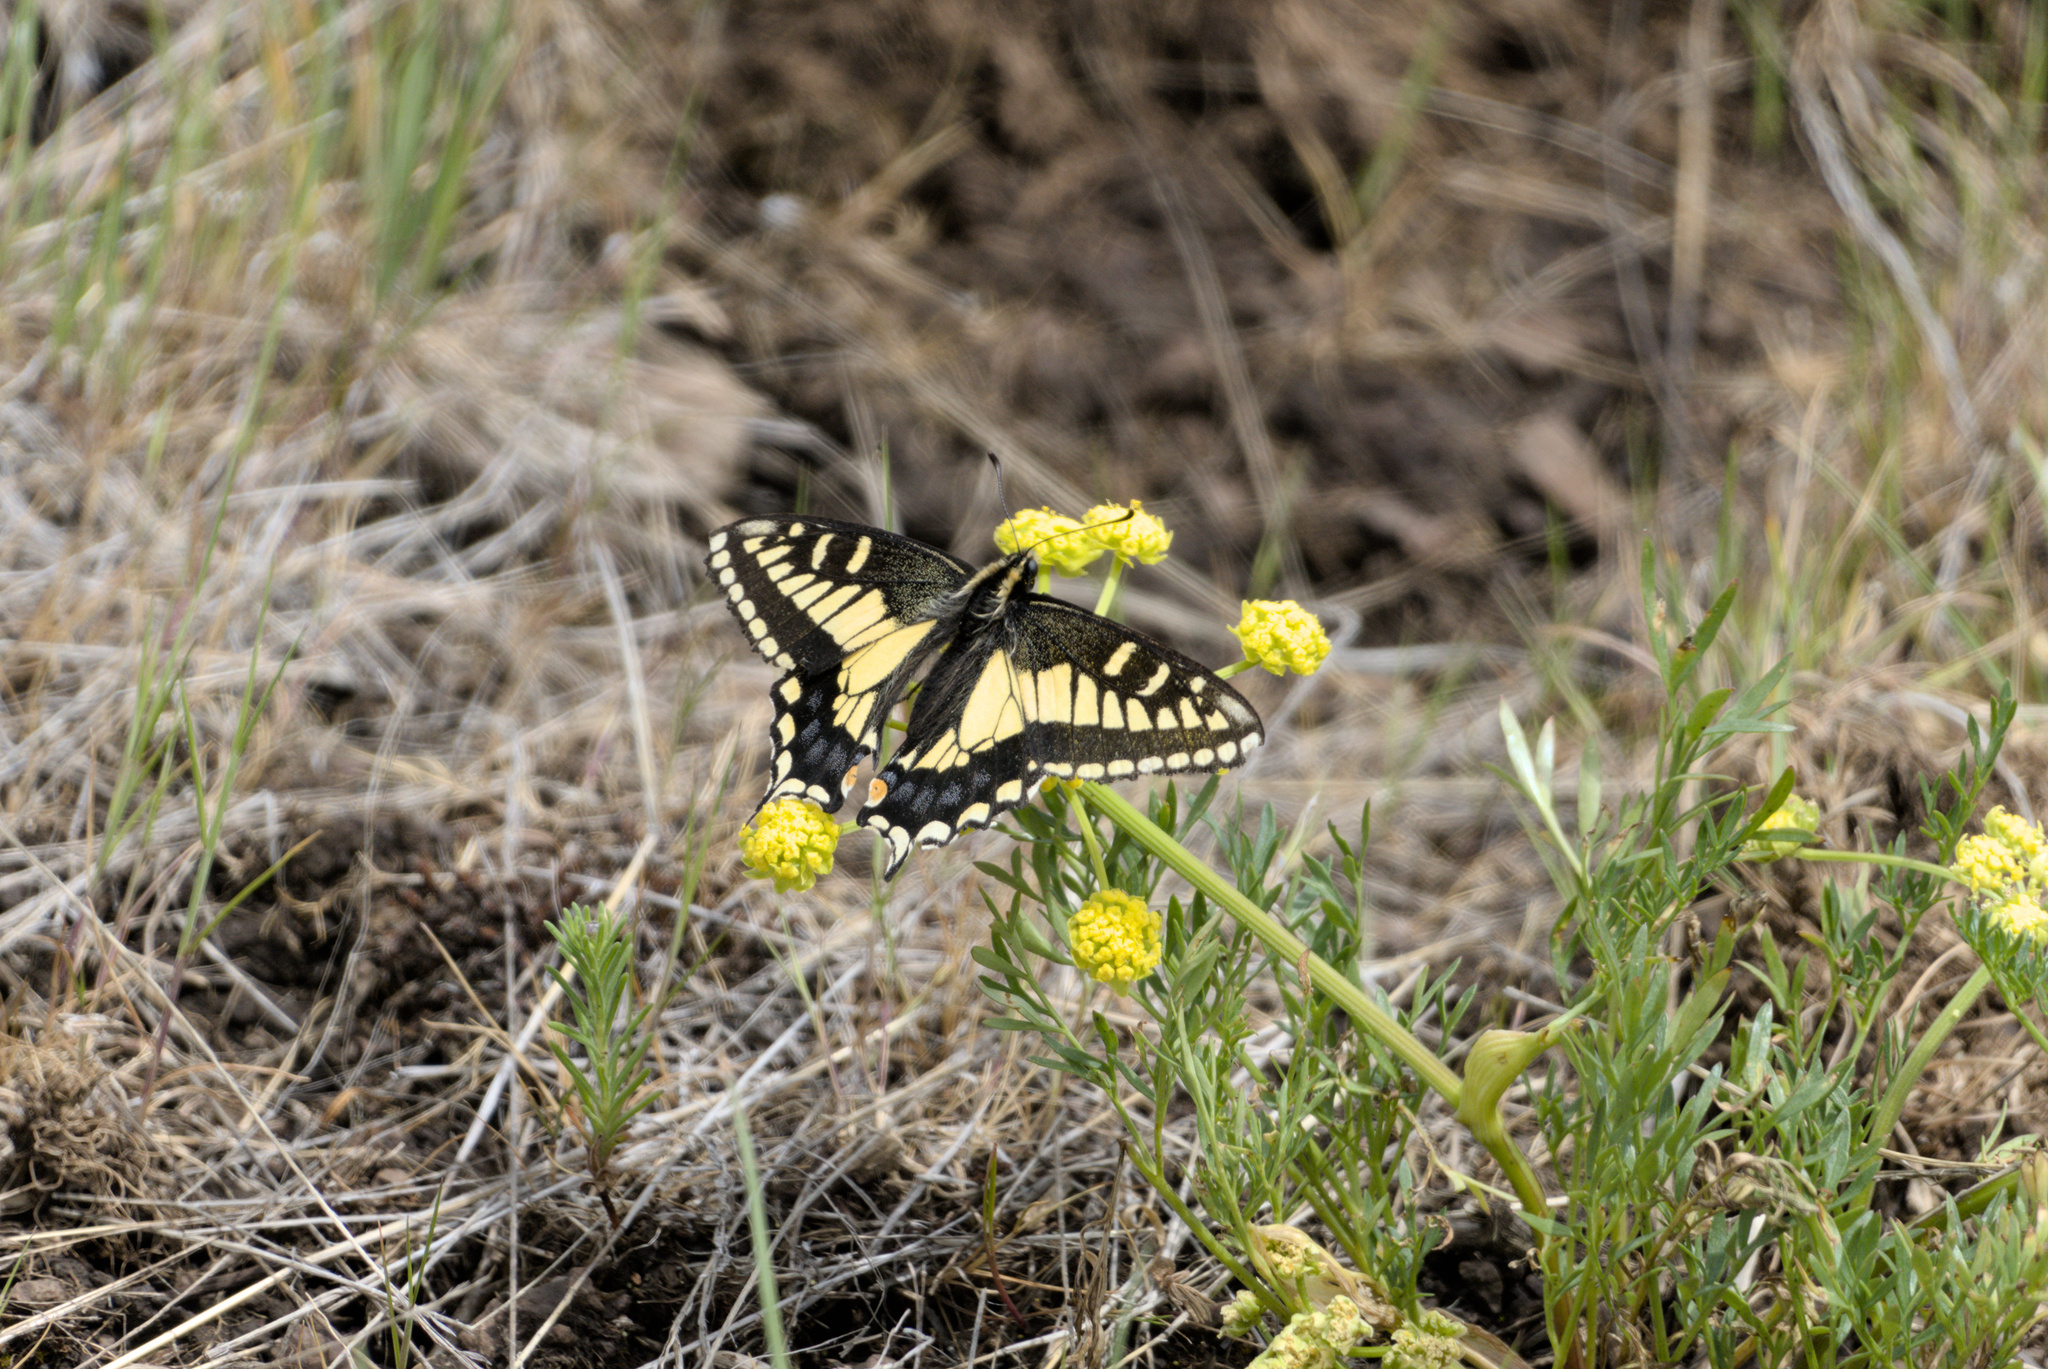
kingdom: Animalia
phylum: Arthropoda
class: Insecta
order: Lepidoptera
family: Papilionidae
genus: Papilio
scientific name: Papilio zelicaon
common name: Anise swallowtail
